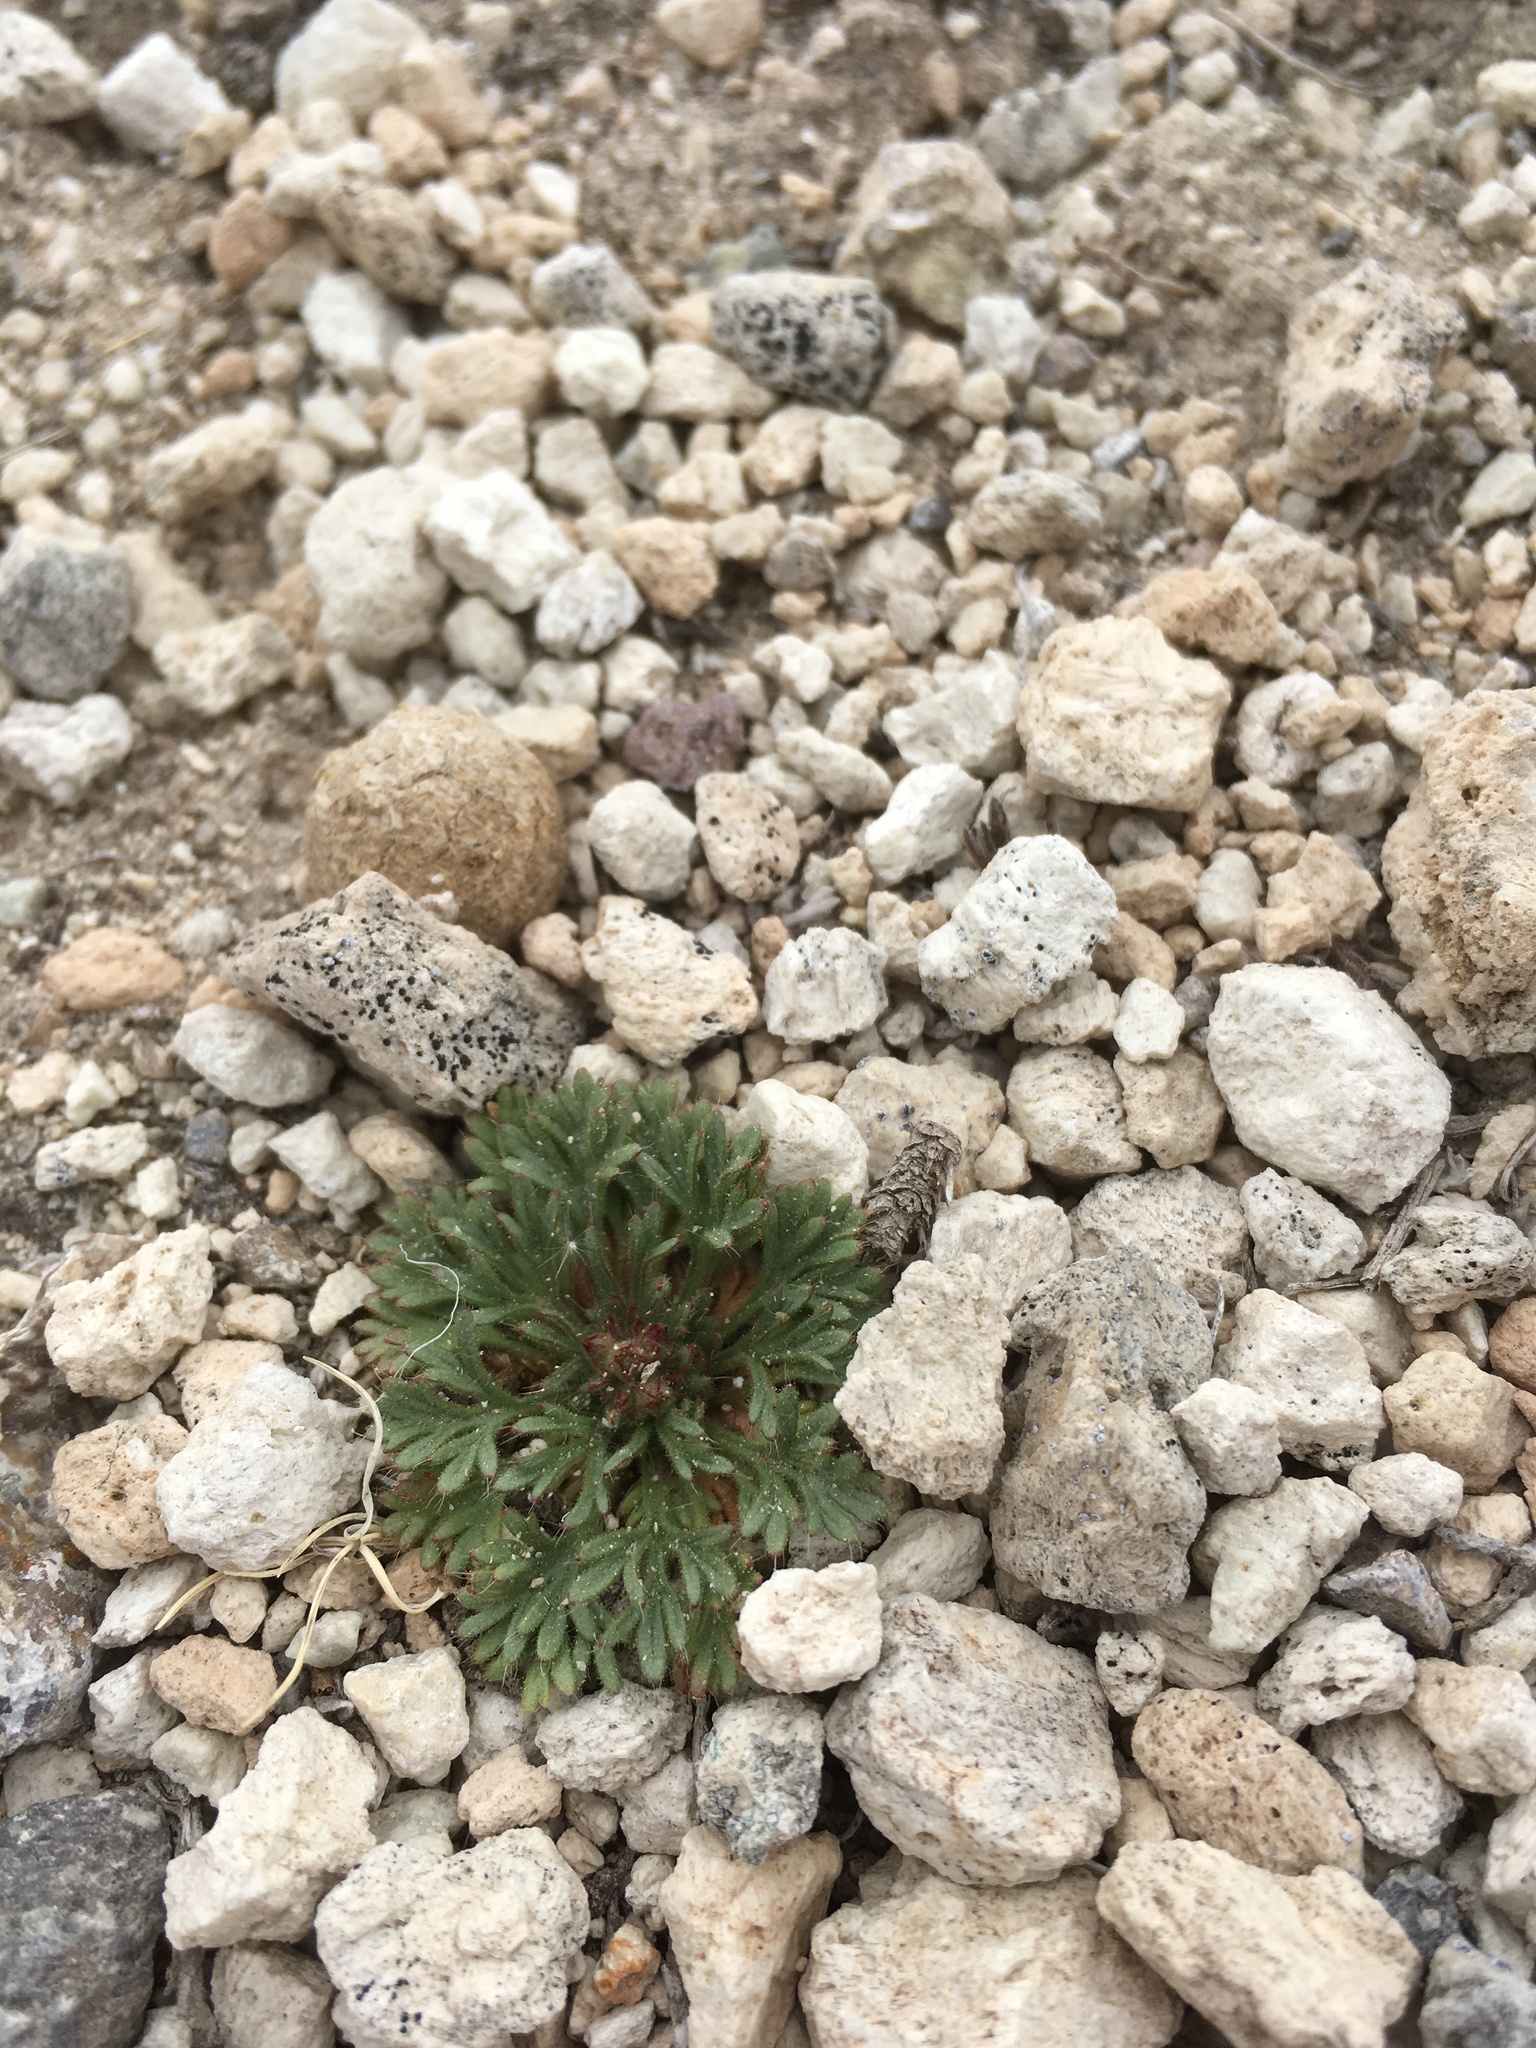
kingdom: Plantae
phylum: Tracheophyta
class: Magnoliopsida
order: Rosales
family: Rosaceae
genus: Chamaerhodos
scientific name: Chamaerhodos erecta
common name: American chamaerhodos
